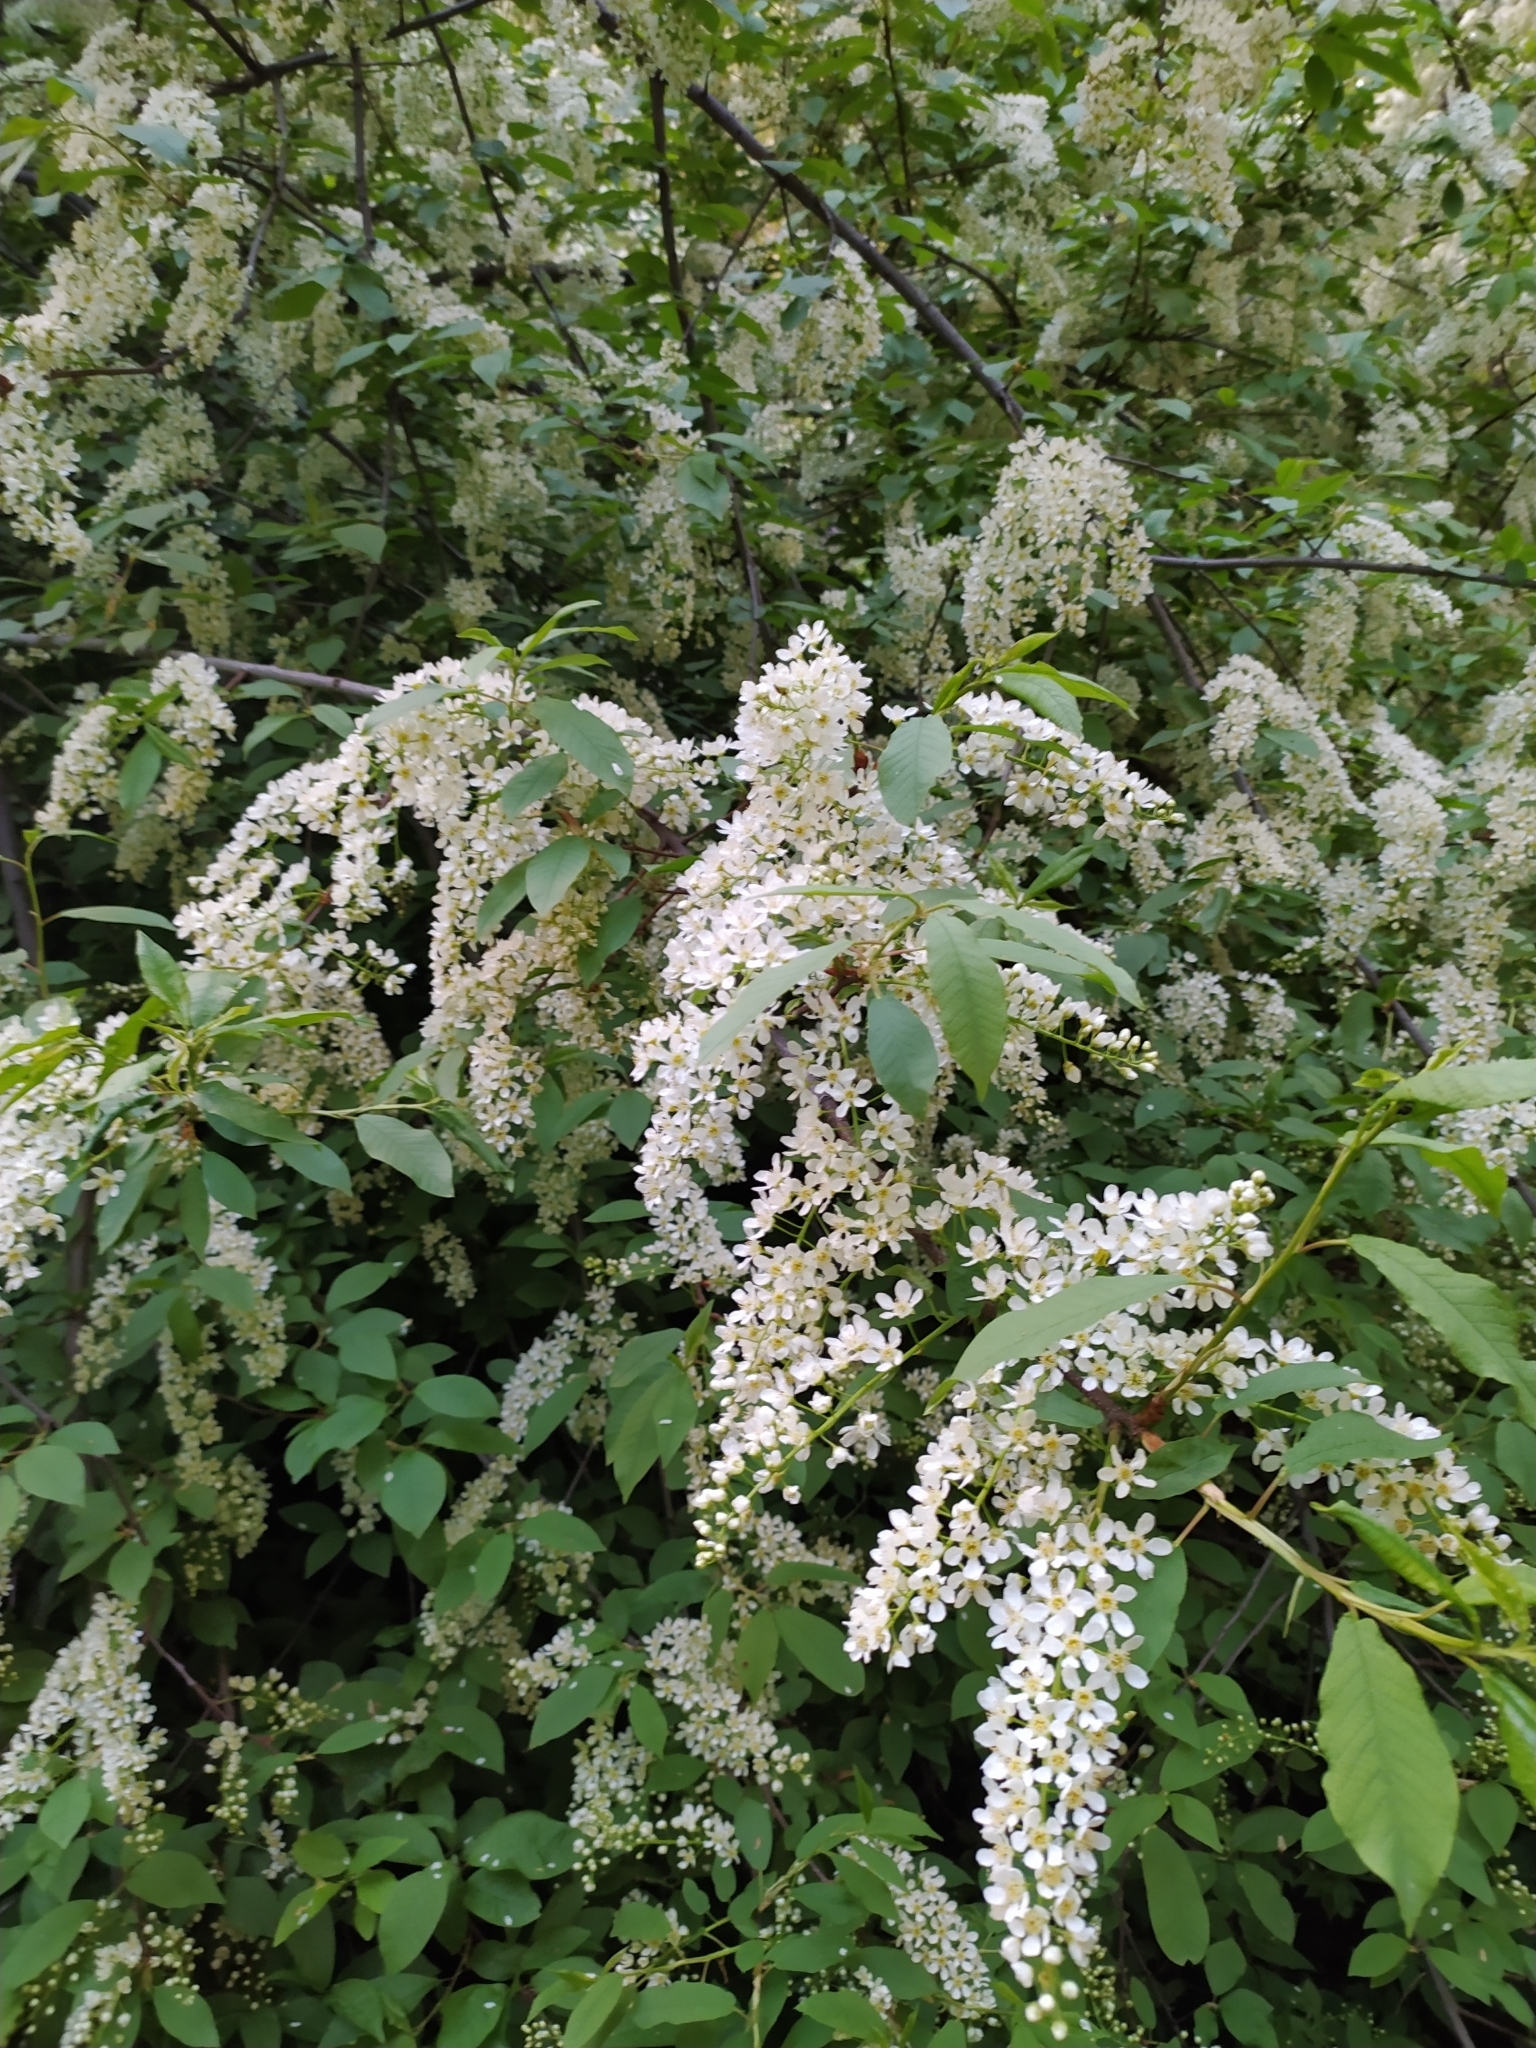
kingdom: Plantae
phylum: Tracheophyta
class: Magnoliopsida
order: Rosales
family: Rosaceae
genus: Prunus
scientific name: Prunus padus
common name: Bird cherry
